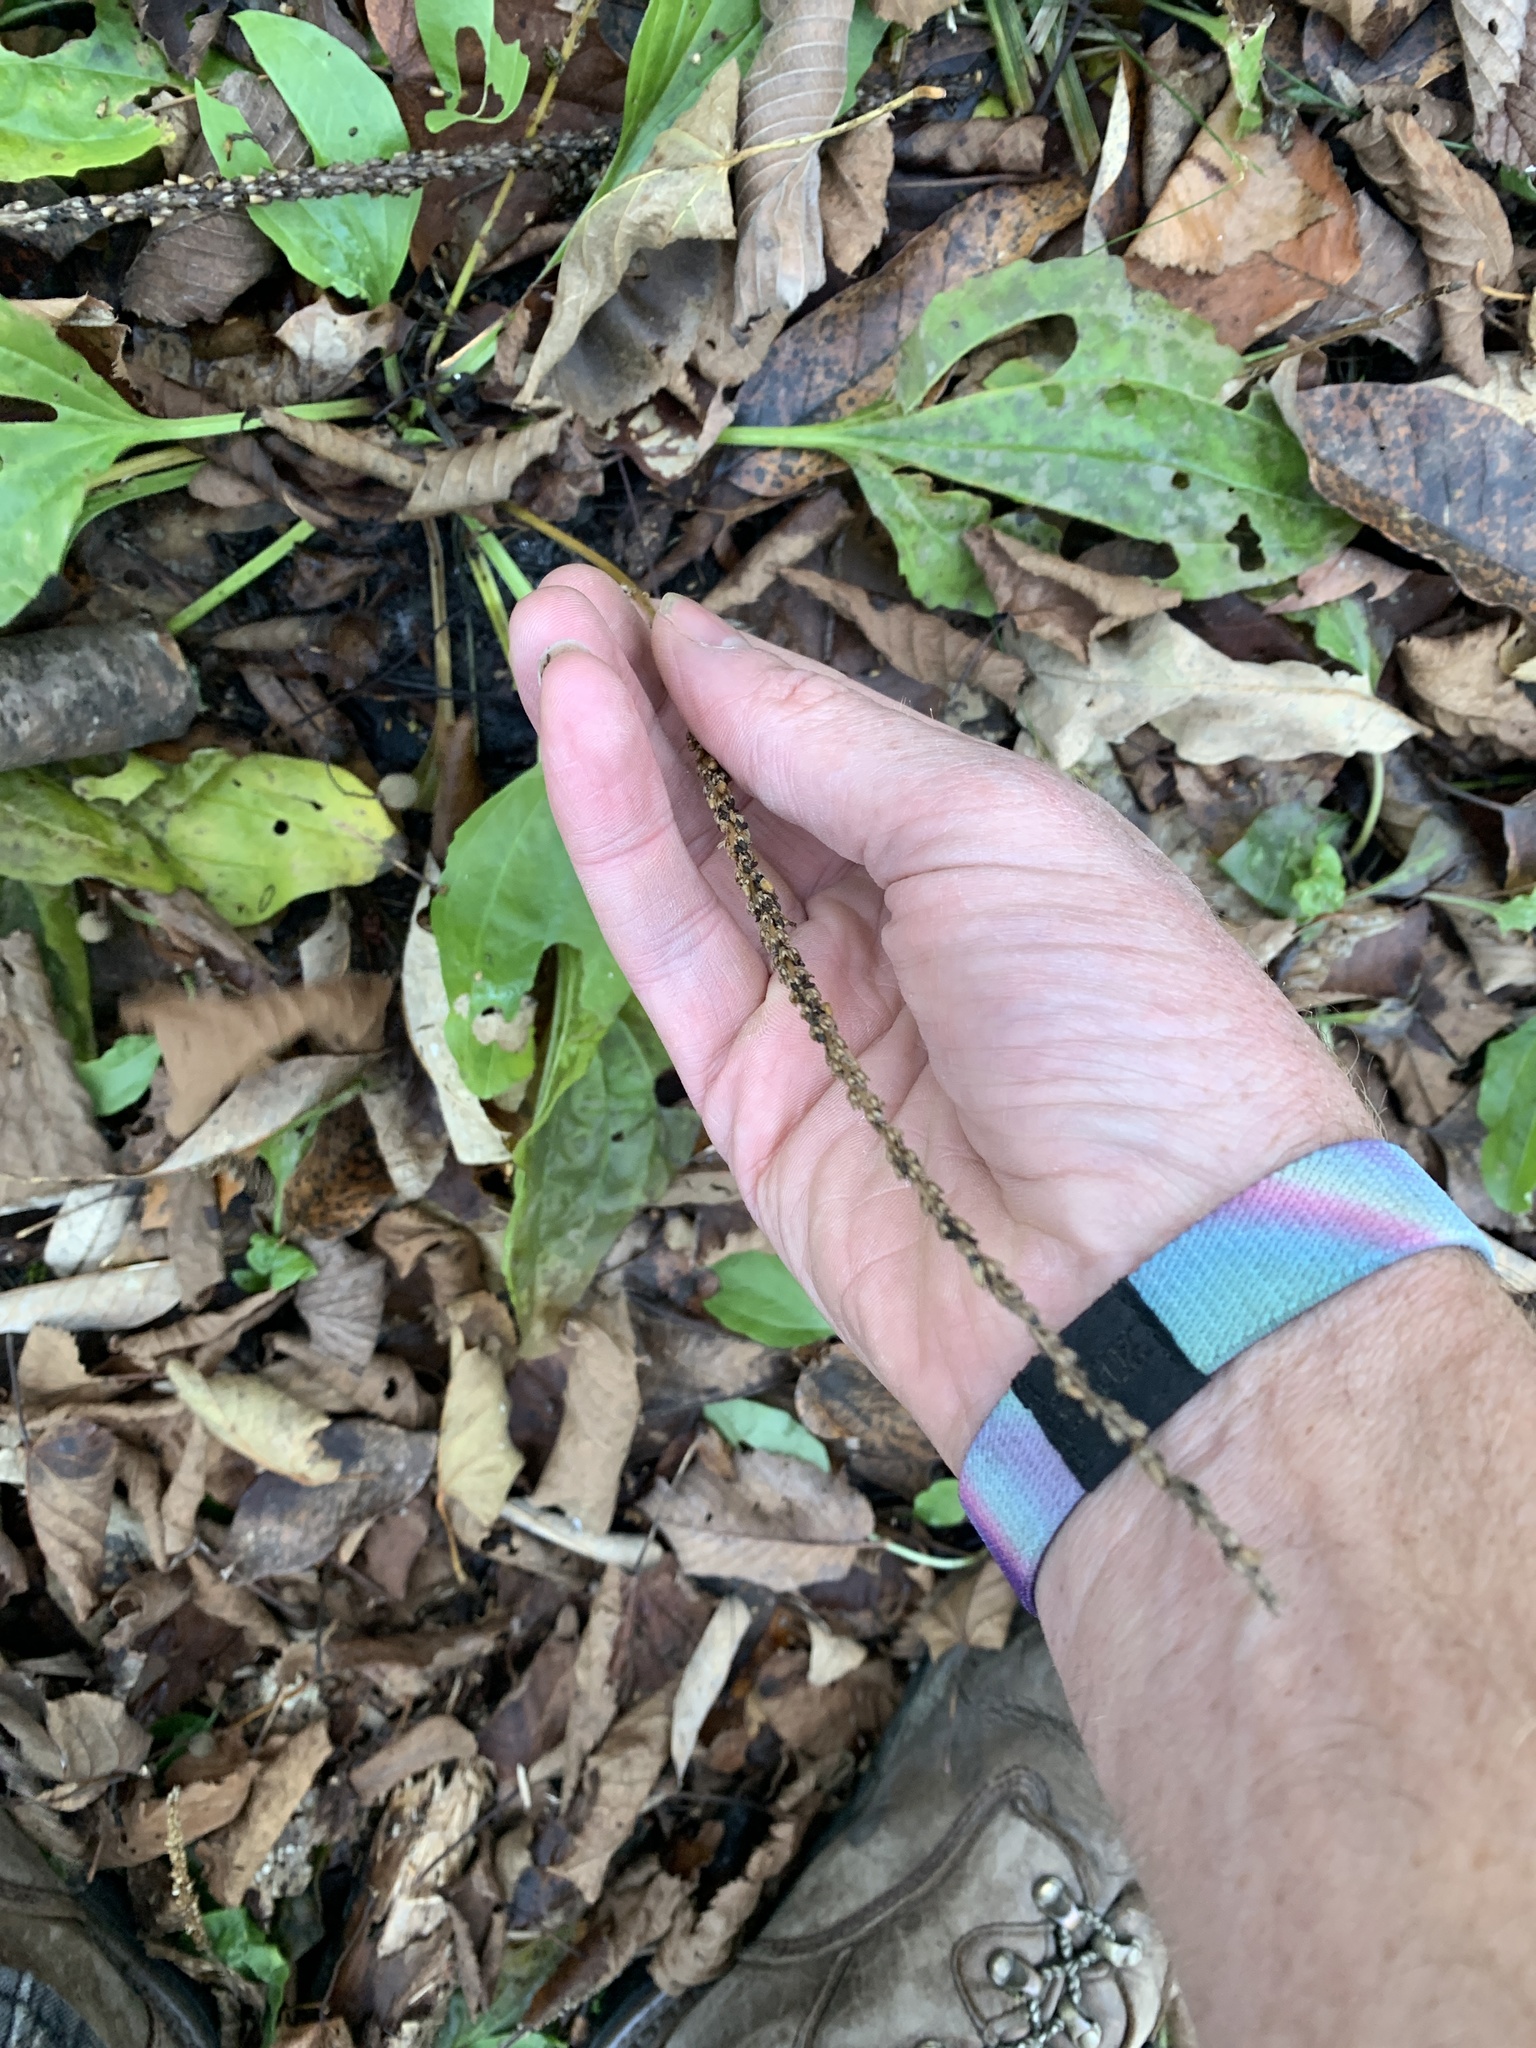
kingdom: Plantae
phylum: Tracheophyta
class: Magnoliopsida
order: Lamiales
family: Plantaginaceae
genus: Plantago
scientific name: Plantago major
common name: Common plantain
